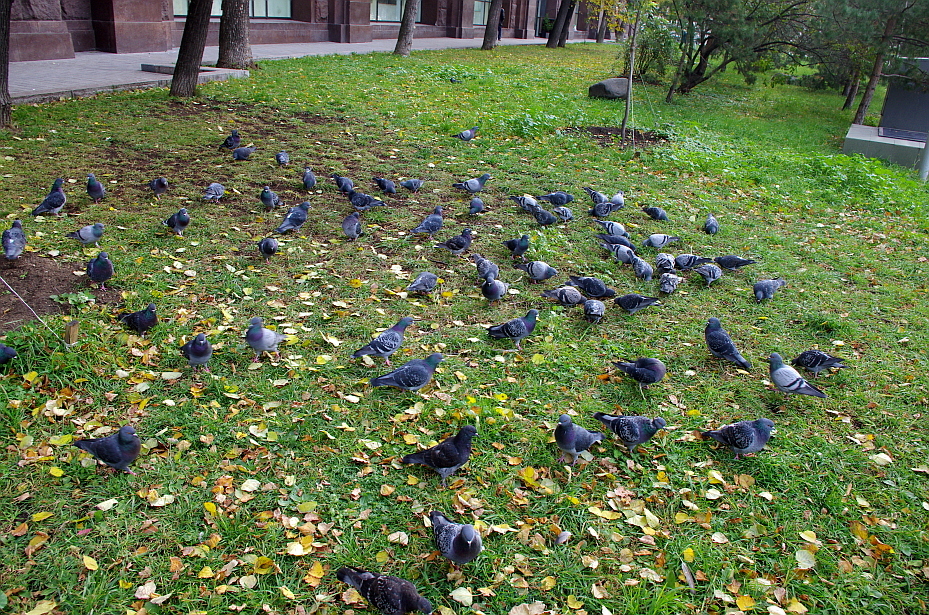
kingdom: Animalia
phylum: Chordata
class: Aves
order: Columbiformes
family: Columbidae
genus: Columba
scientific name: Columba livia
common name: Rock pigeon
